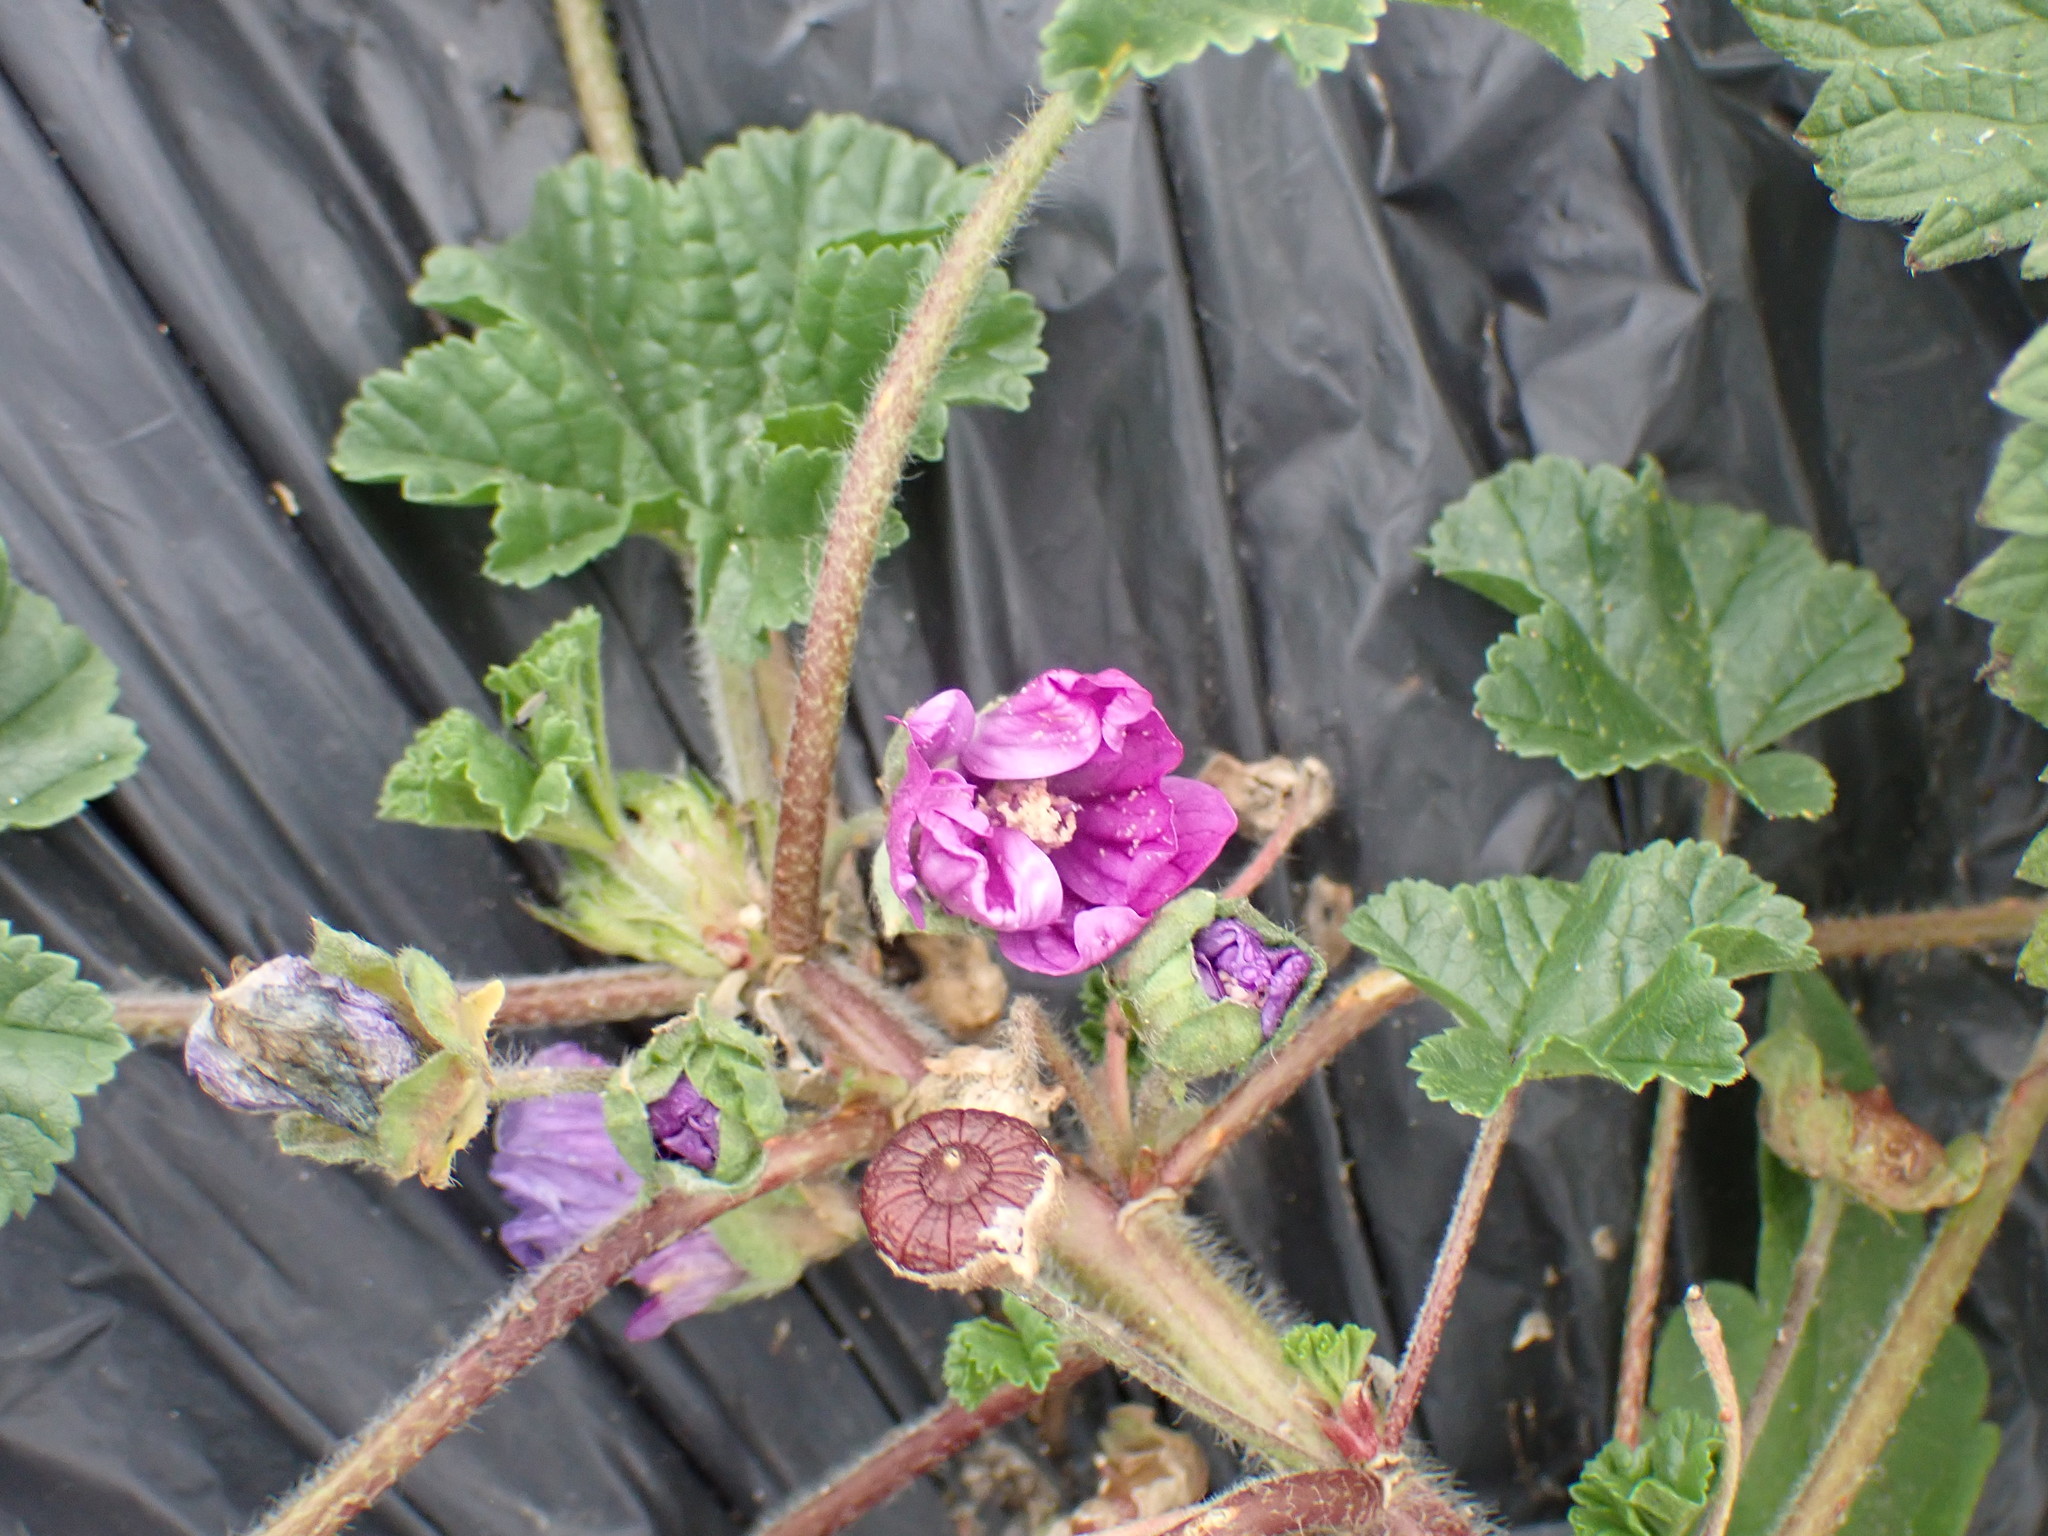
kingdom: Plantae
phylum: Tracheophyta
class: Magnoliopsida
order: Malvales
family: Malvaceae
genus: Malva
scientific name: Malva sylvestris
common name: Common mallow
